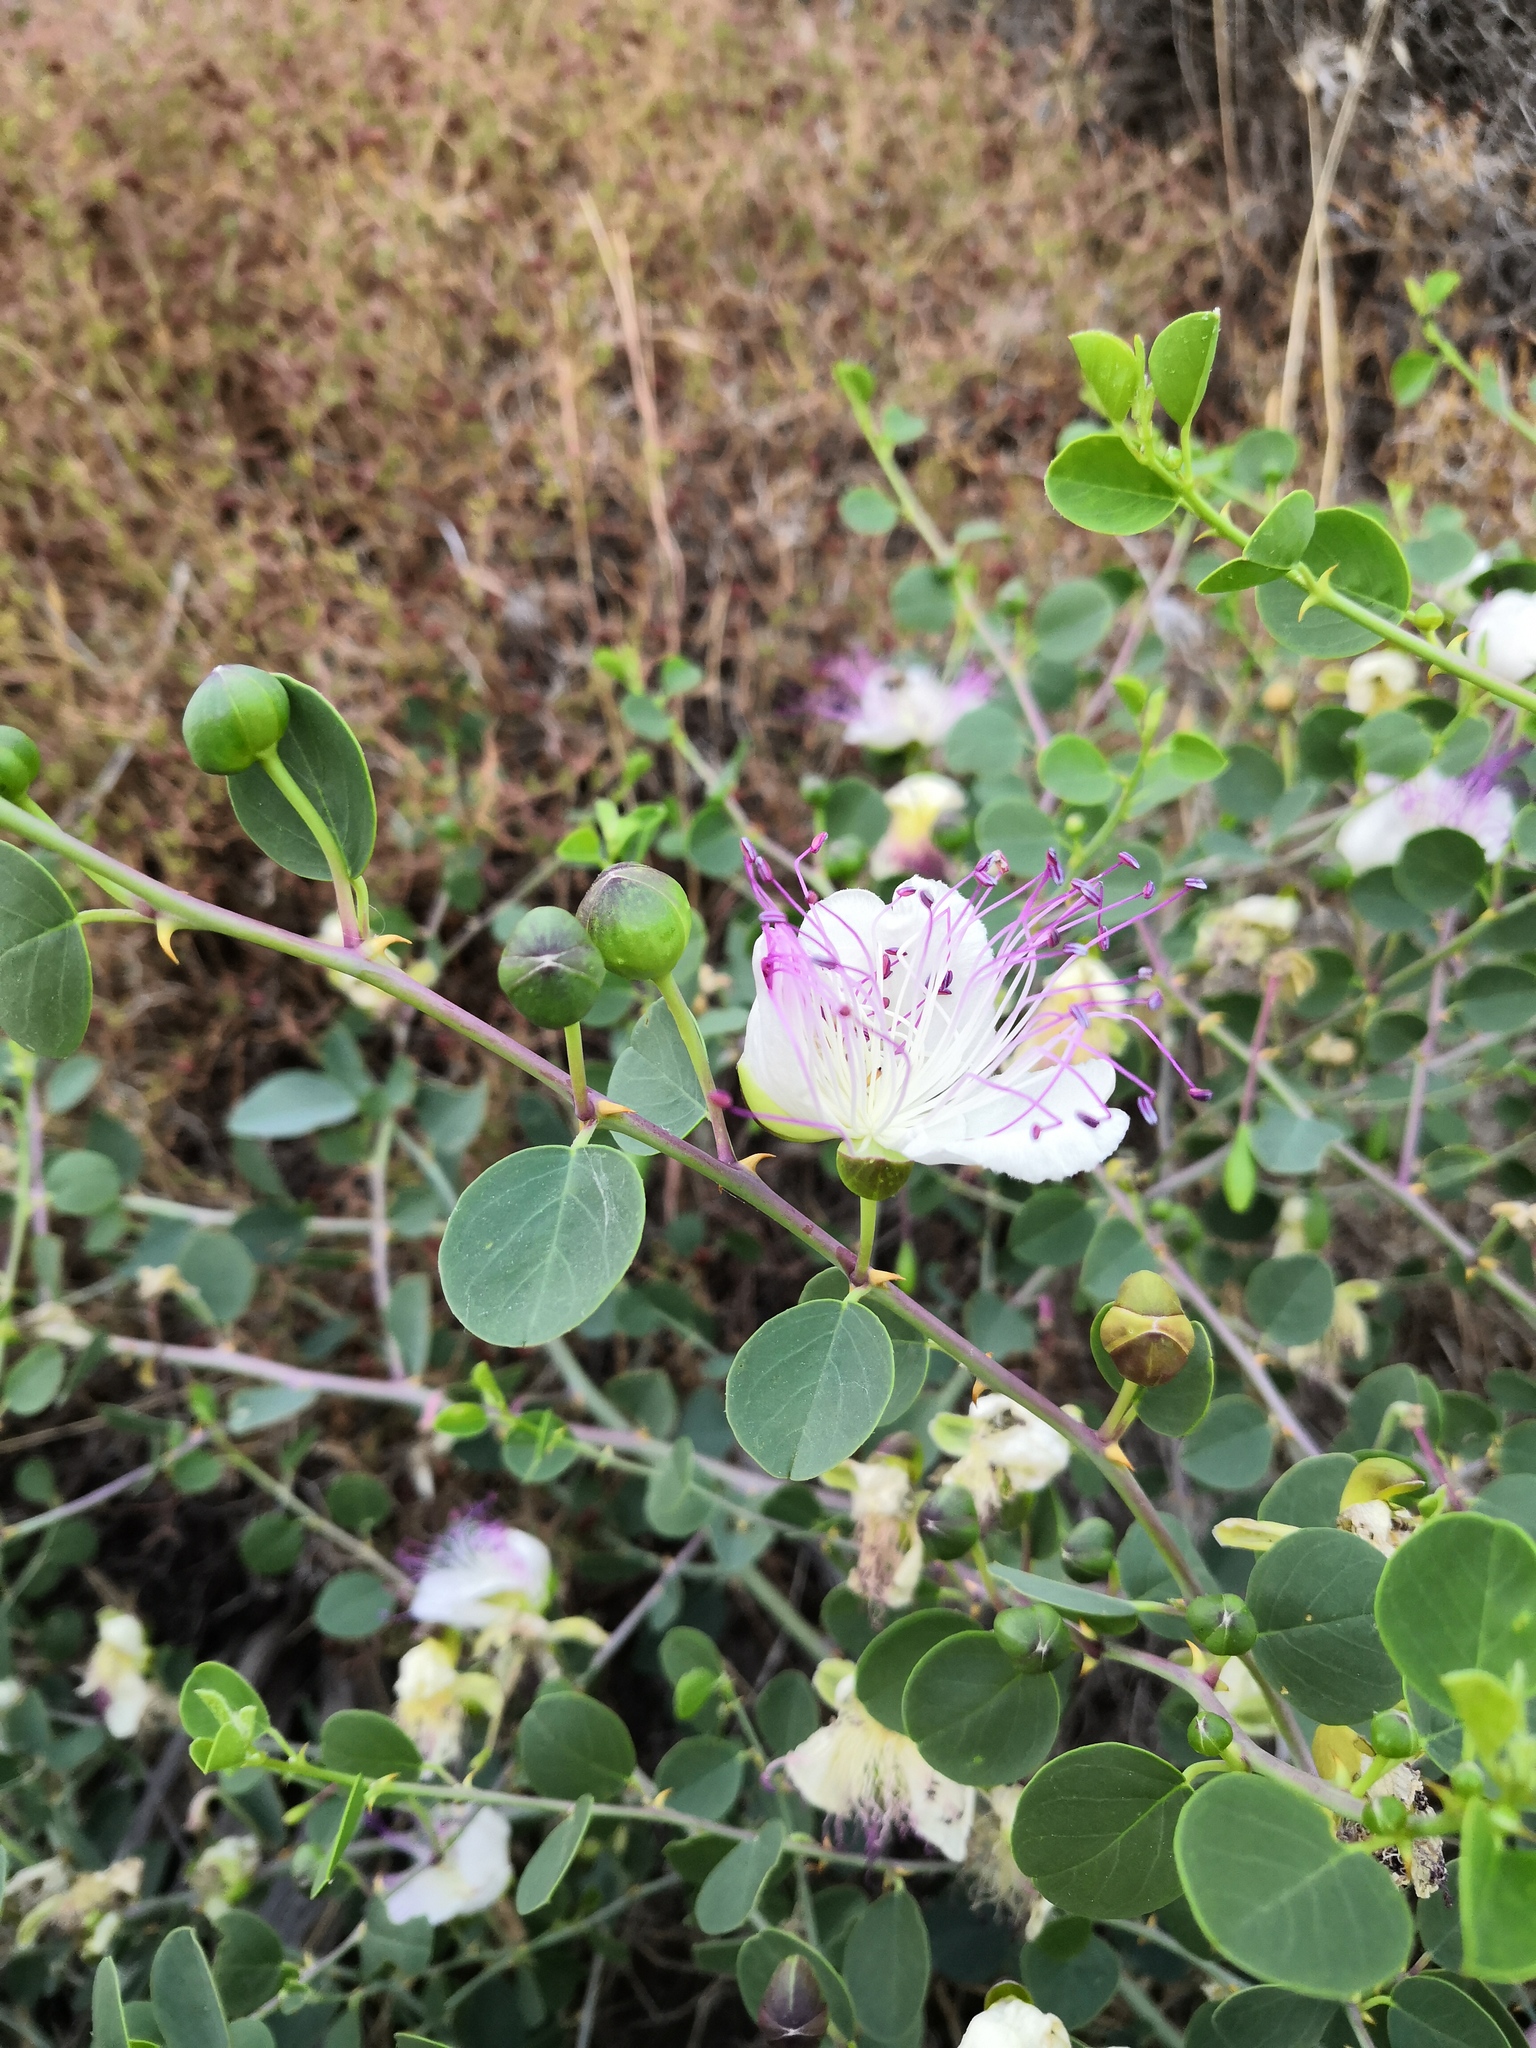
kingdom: Plantae
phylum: Tracheophyta
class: Magnoliopsida
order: Brassicales
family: Capparaceae
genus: Capparis
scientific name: Capparis spinosa
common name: Caper
